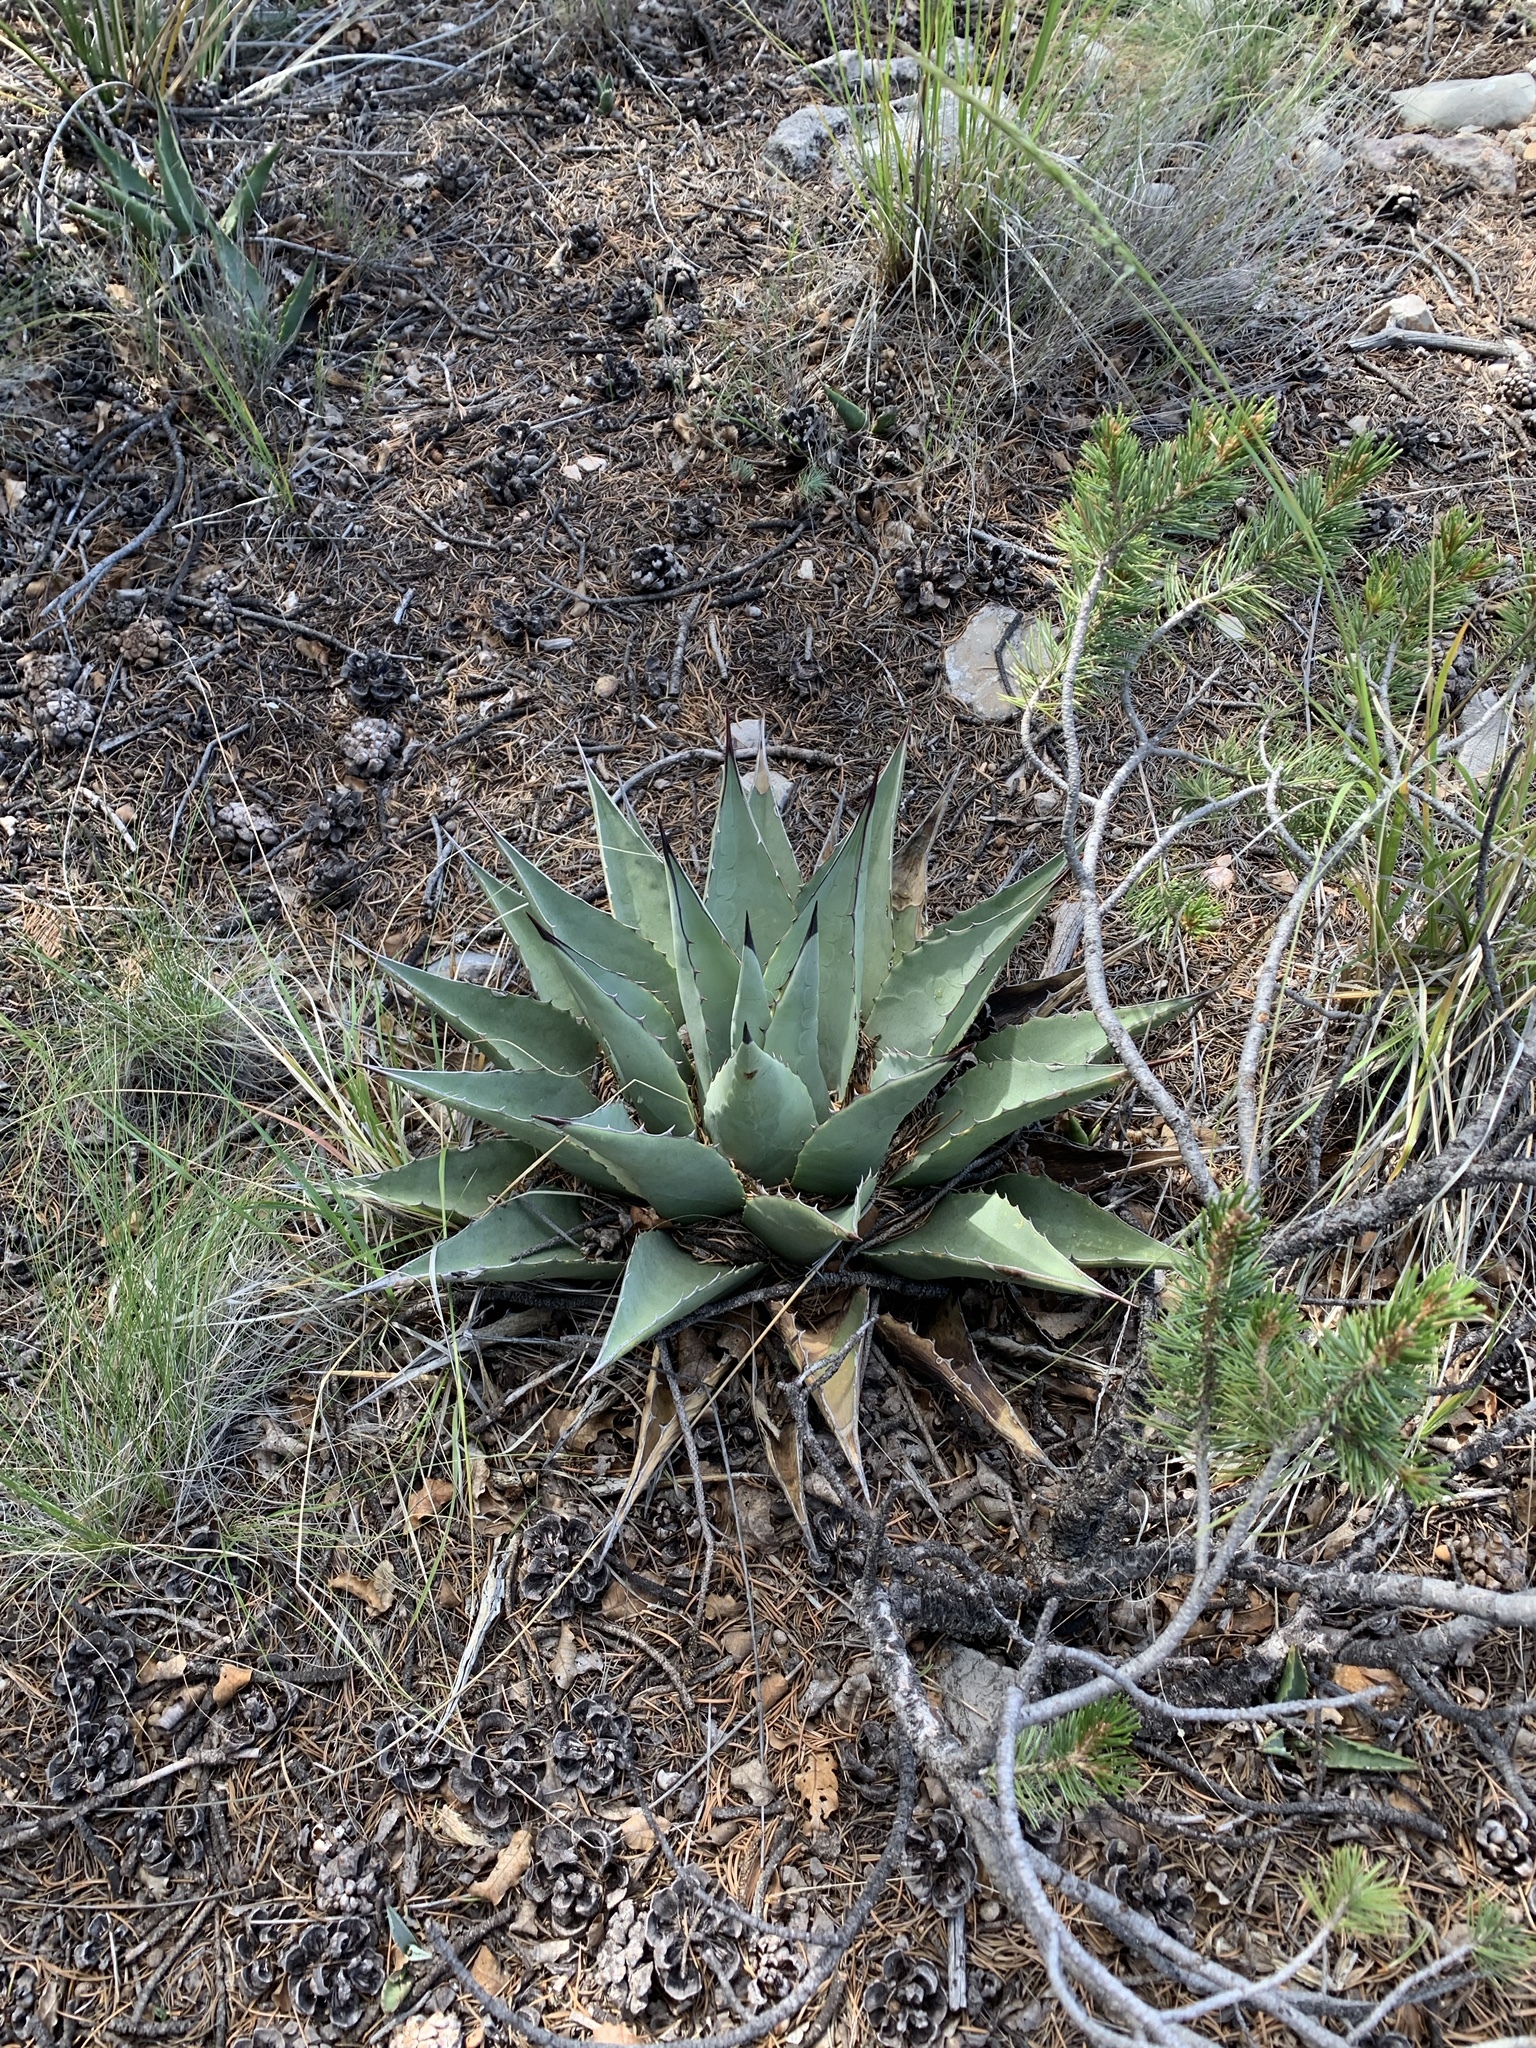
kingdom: Plantae
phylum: Tracheophyta
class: Liliopsida
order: Asparagales
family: Asparagaceae
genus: Agave
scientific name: Agave parryi
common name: Parry's agave
